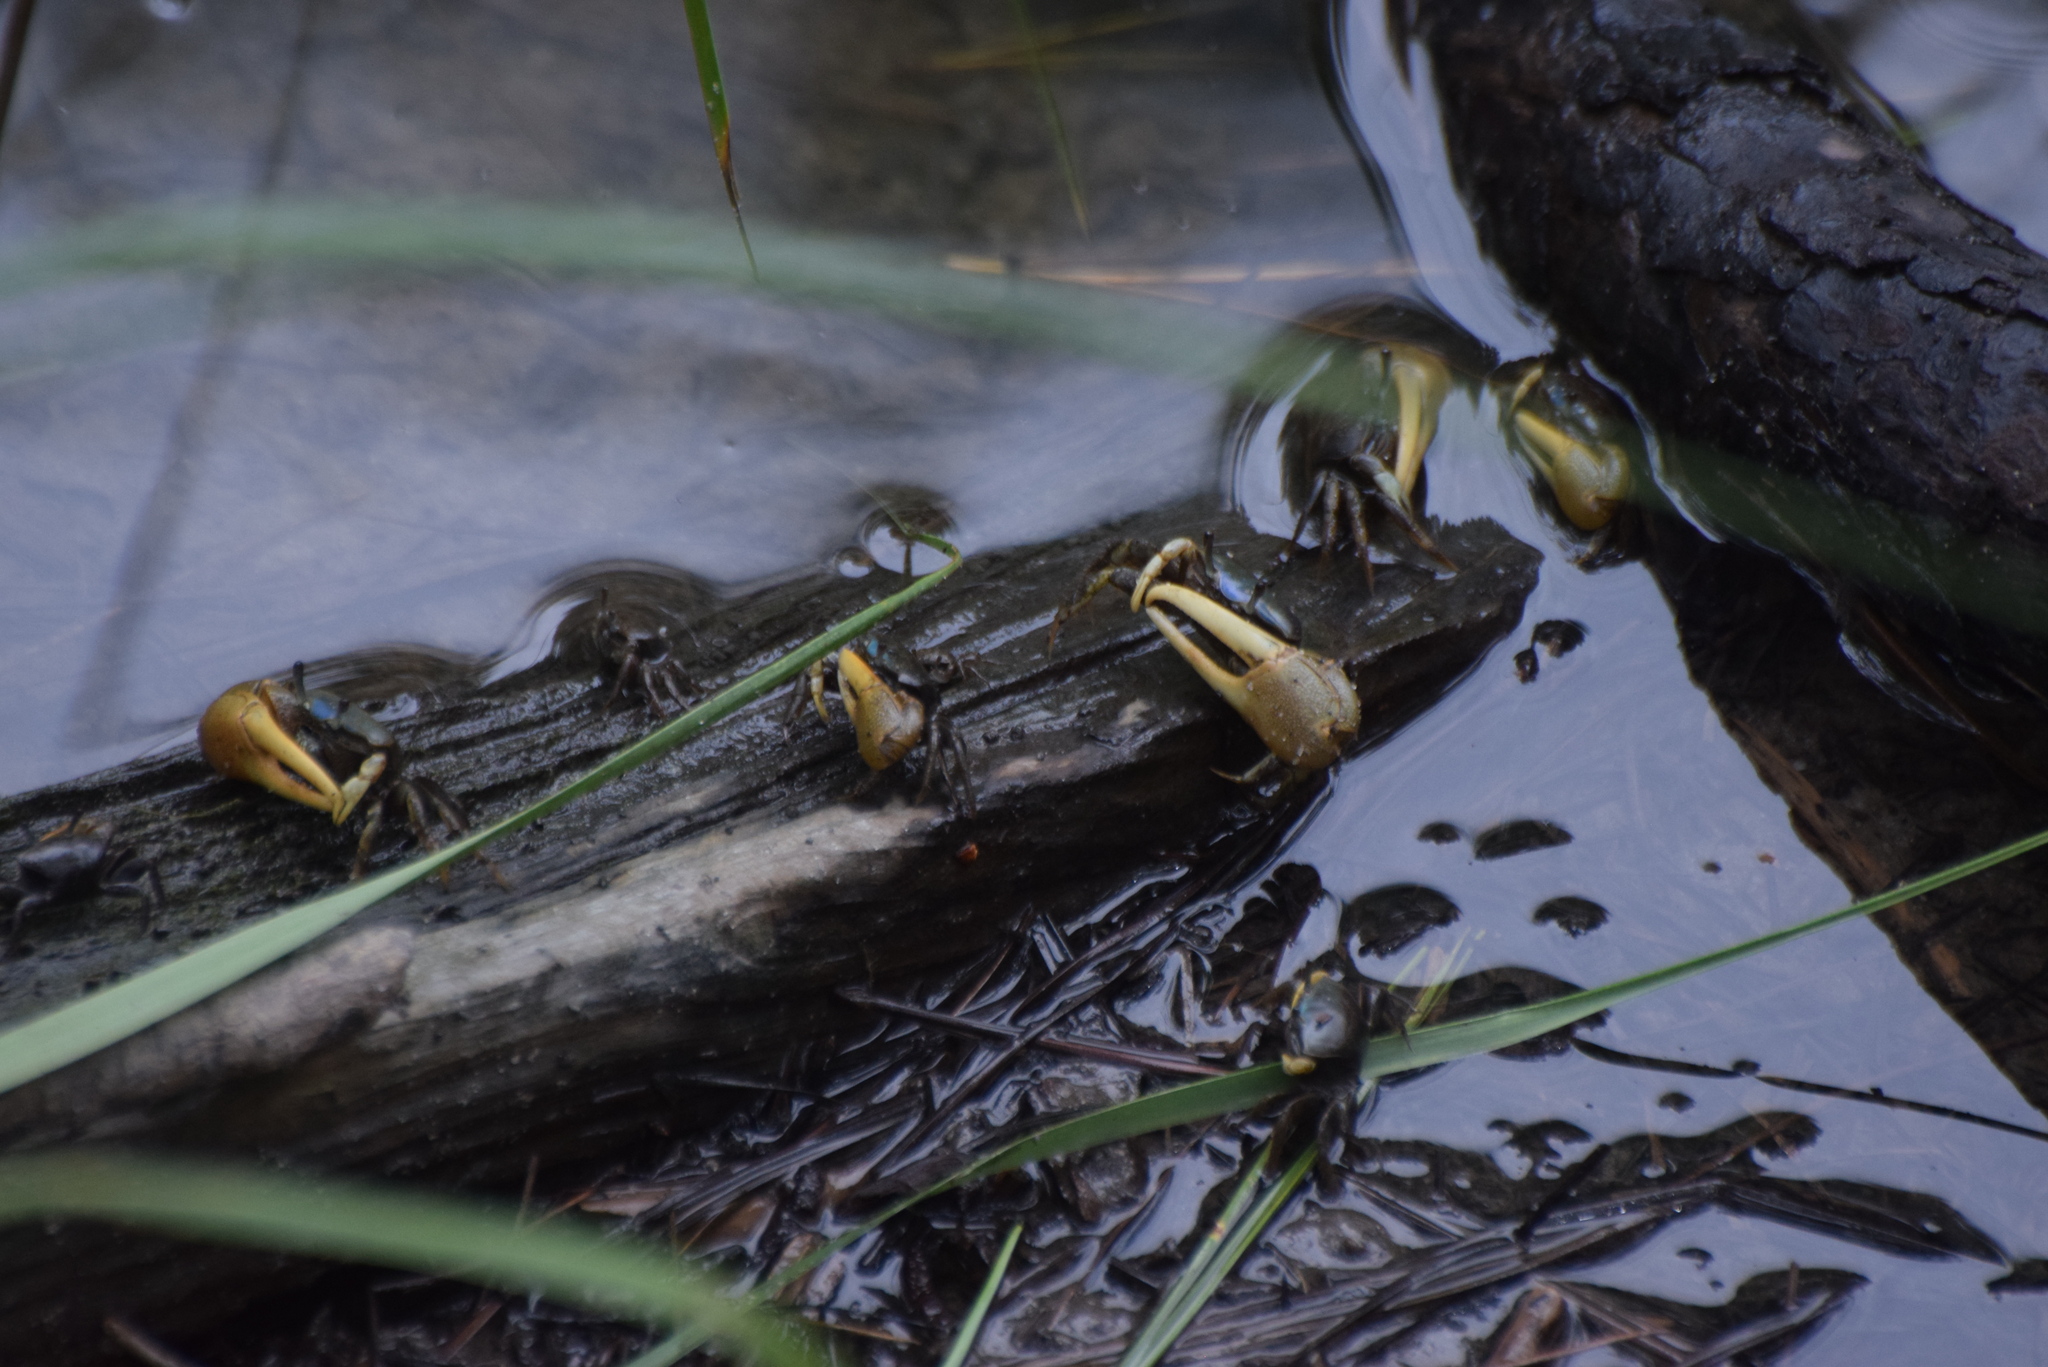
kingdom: Animalia
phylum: Arthropoda
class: Malacostraca
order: Decapoda
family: Ocypodidae
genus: Minuca
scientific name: Minuca pugnax
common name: Mud fiddler crab
